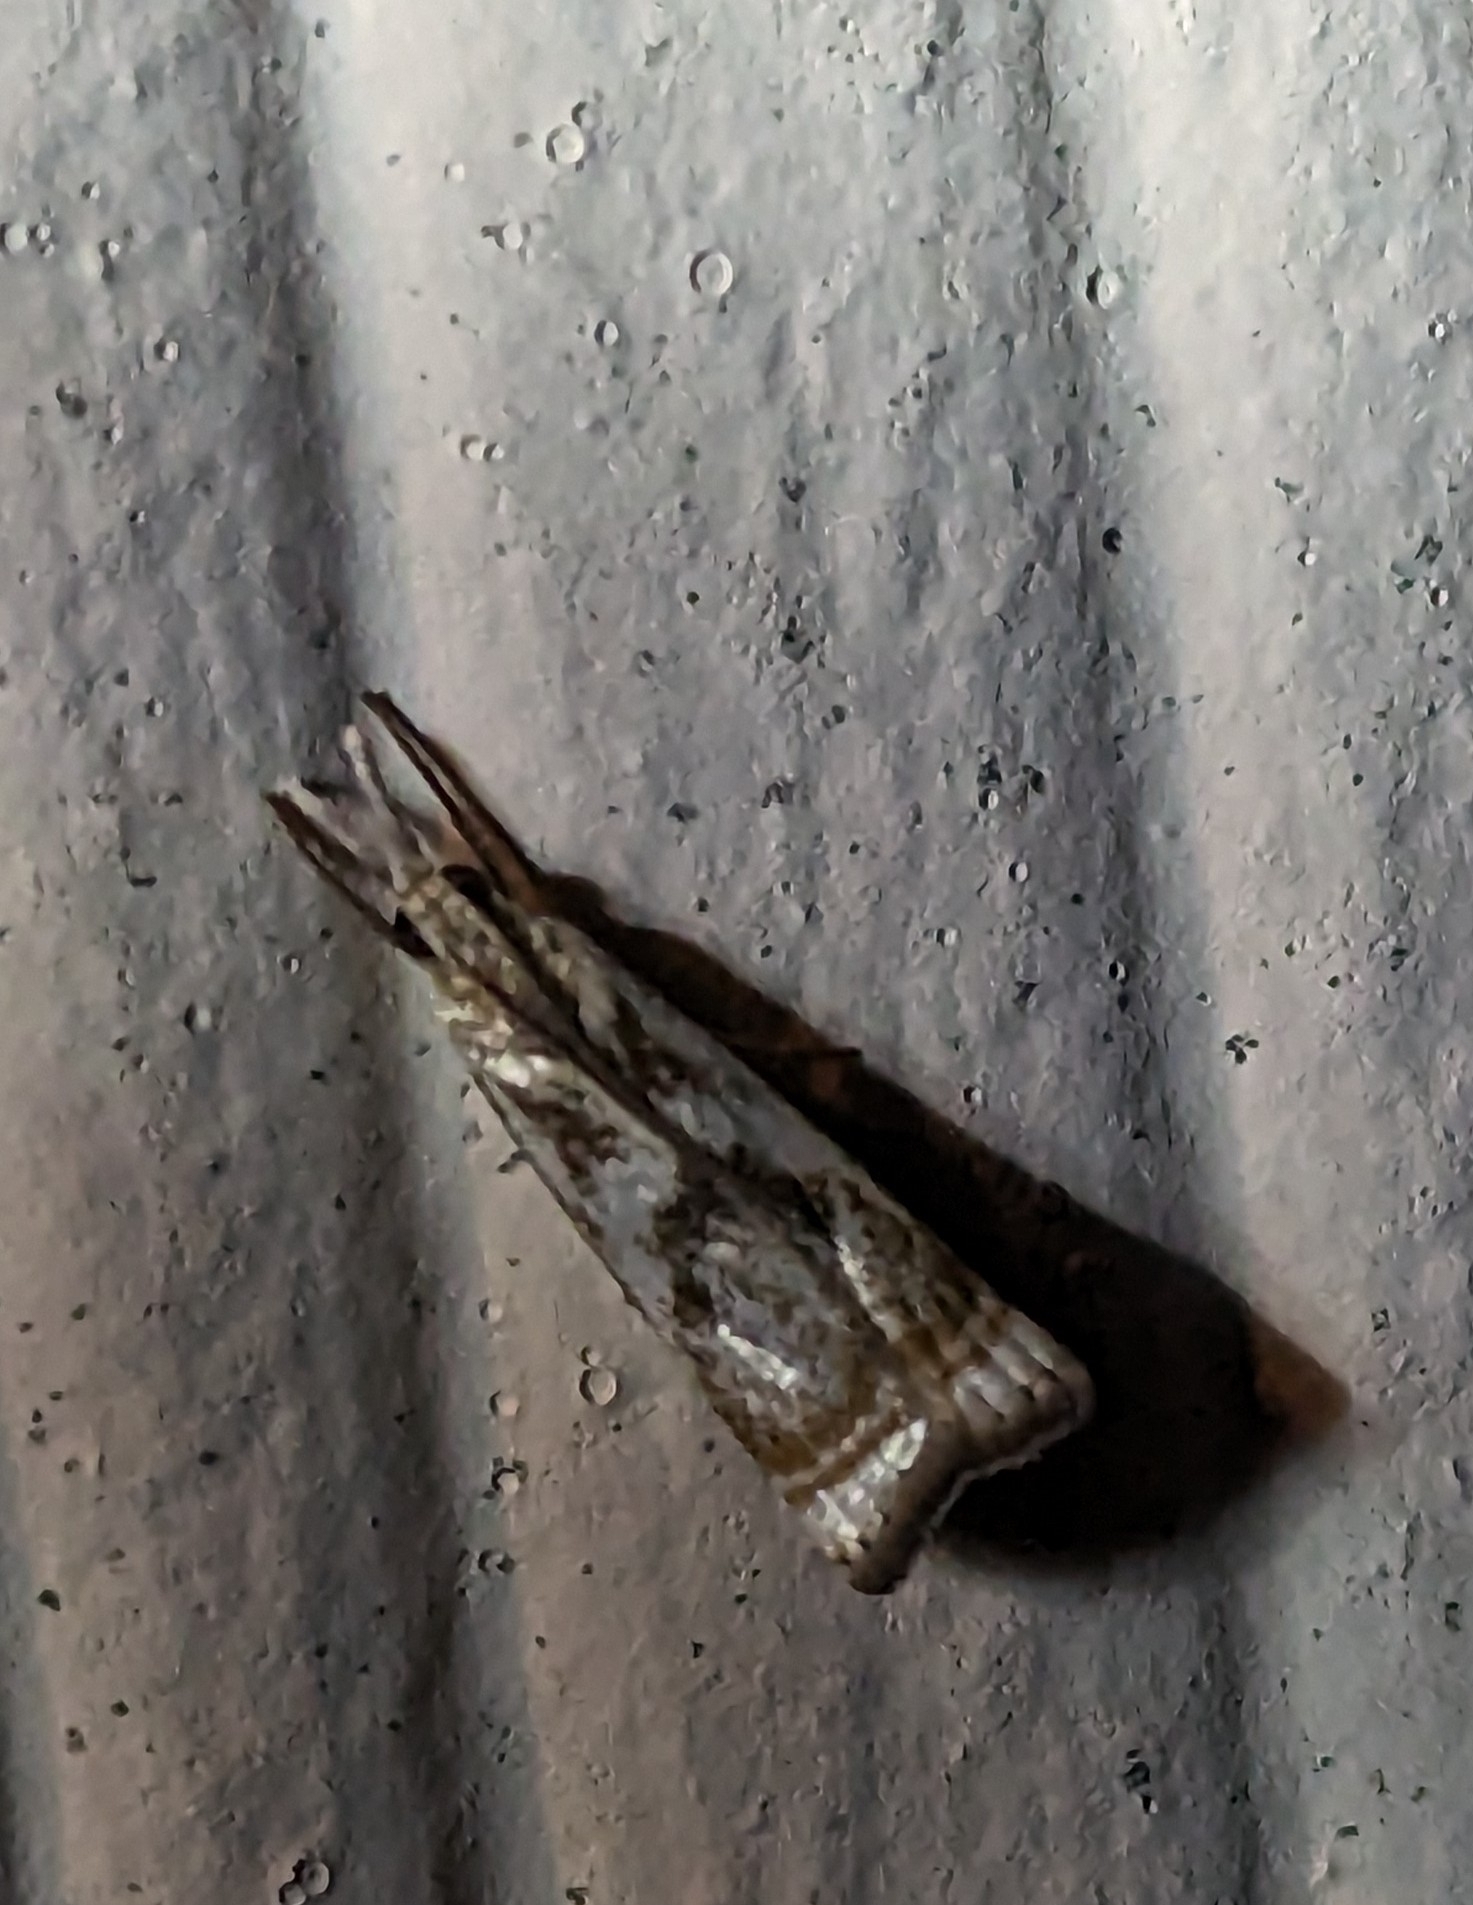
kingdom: Animalia
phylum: Arthropoda
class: Insecta
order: Lepidoptera
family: Crambidae
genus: Microcrambus
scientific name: Microcrambus elegans
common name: Elegant grass-veneer
